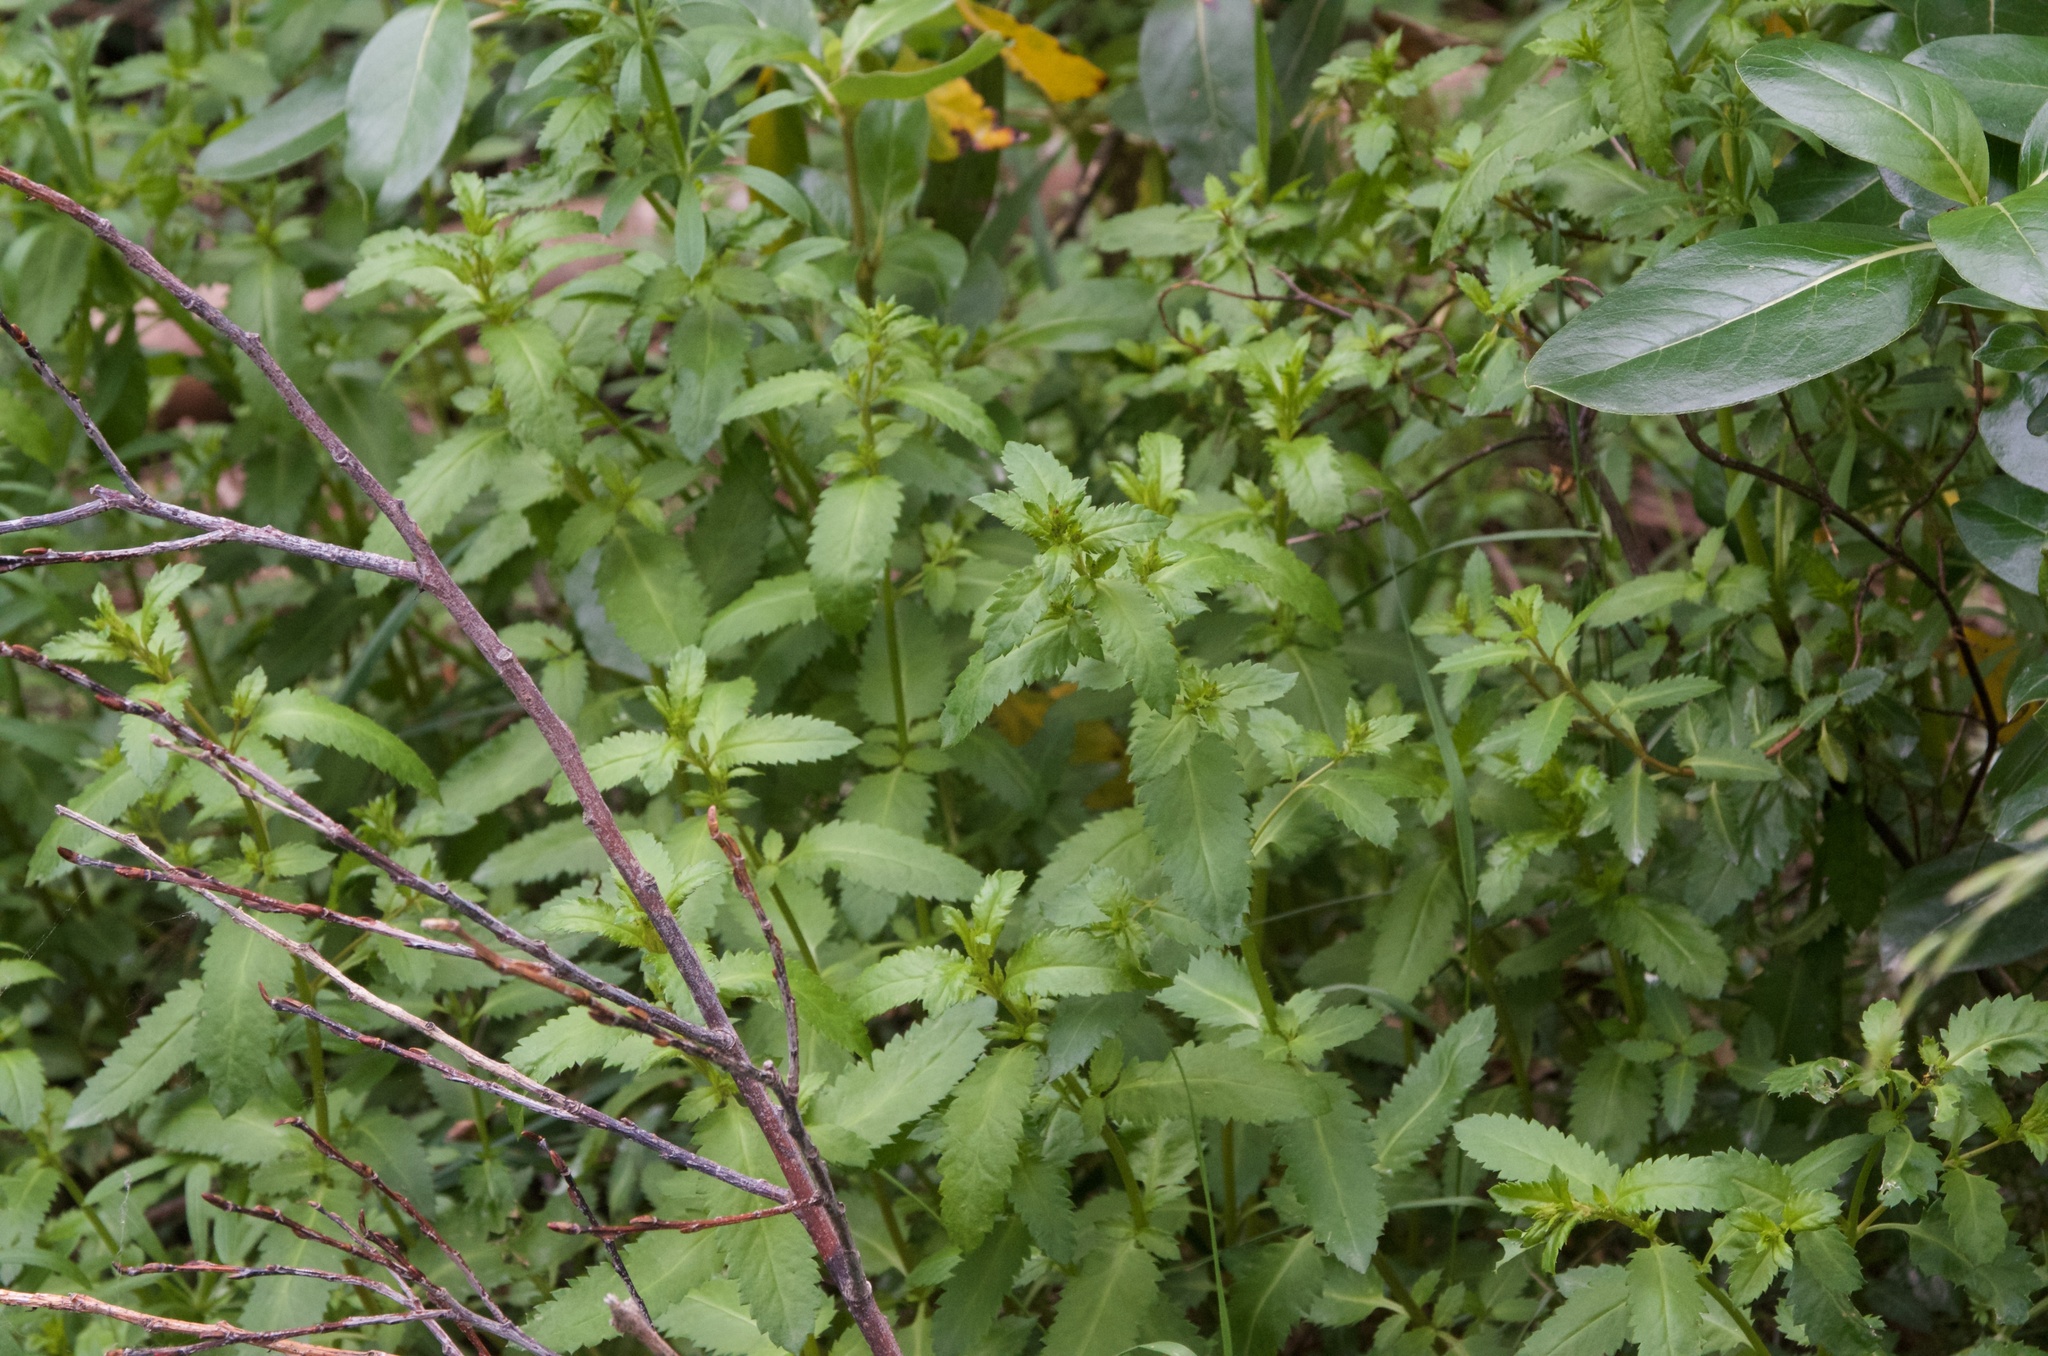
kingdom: Plantae
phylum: Tracheophyta
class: Magnoliopsida
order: Saxifragales
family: Haloragaceae
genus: Haloragis
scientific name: Haloragis erecta
